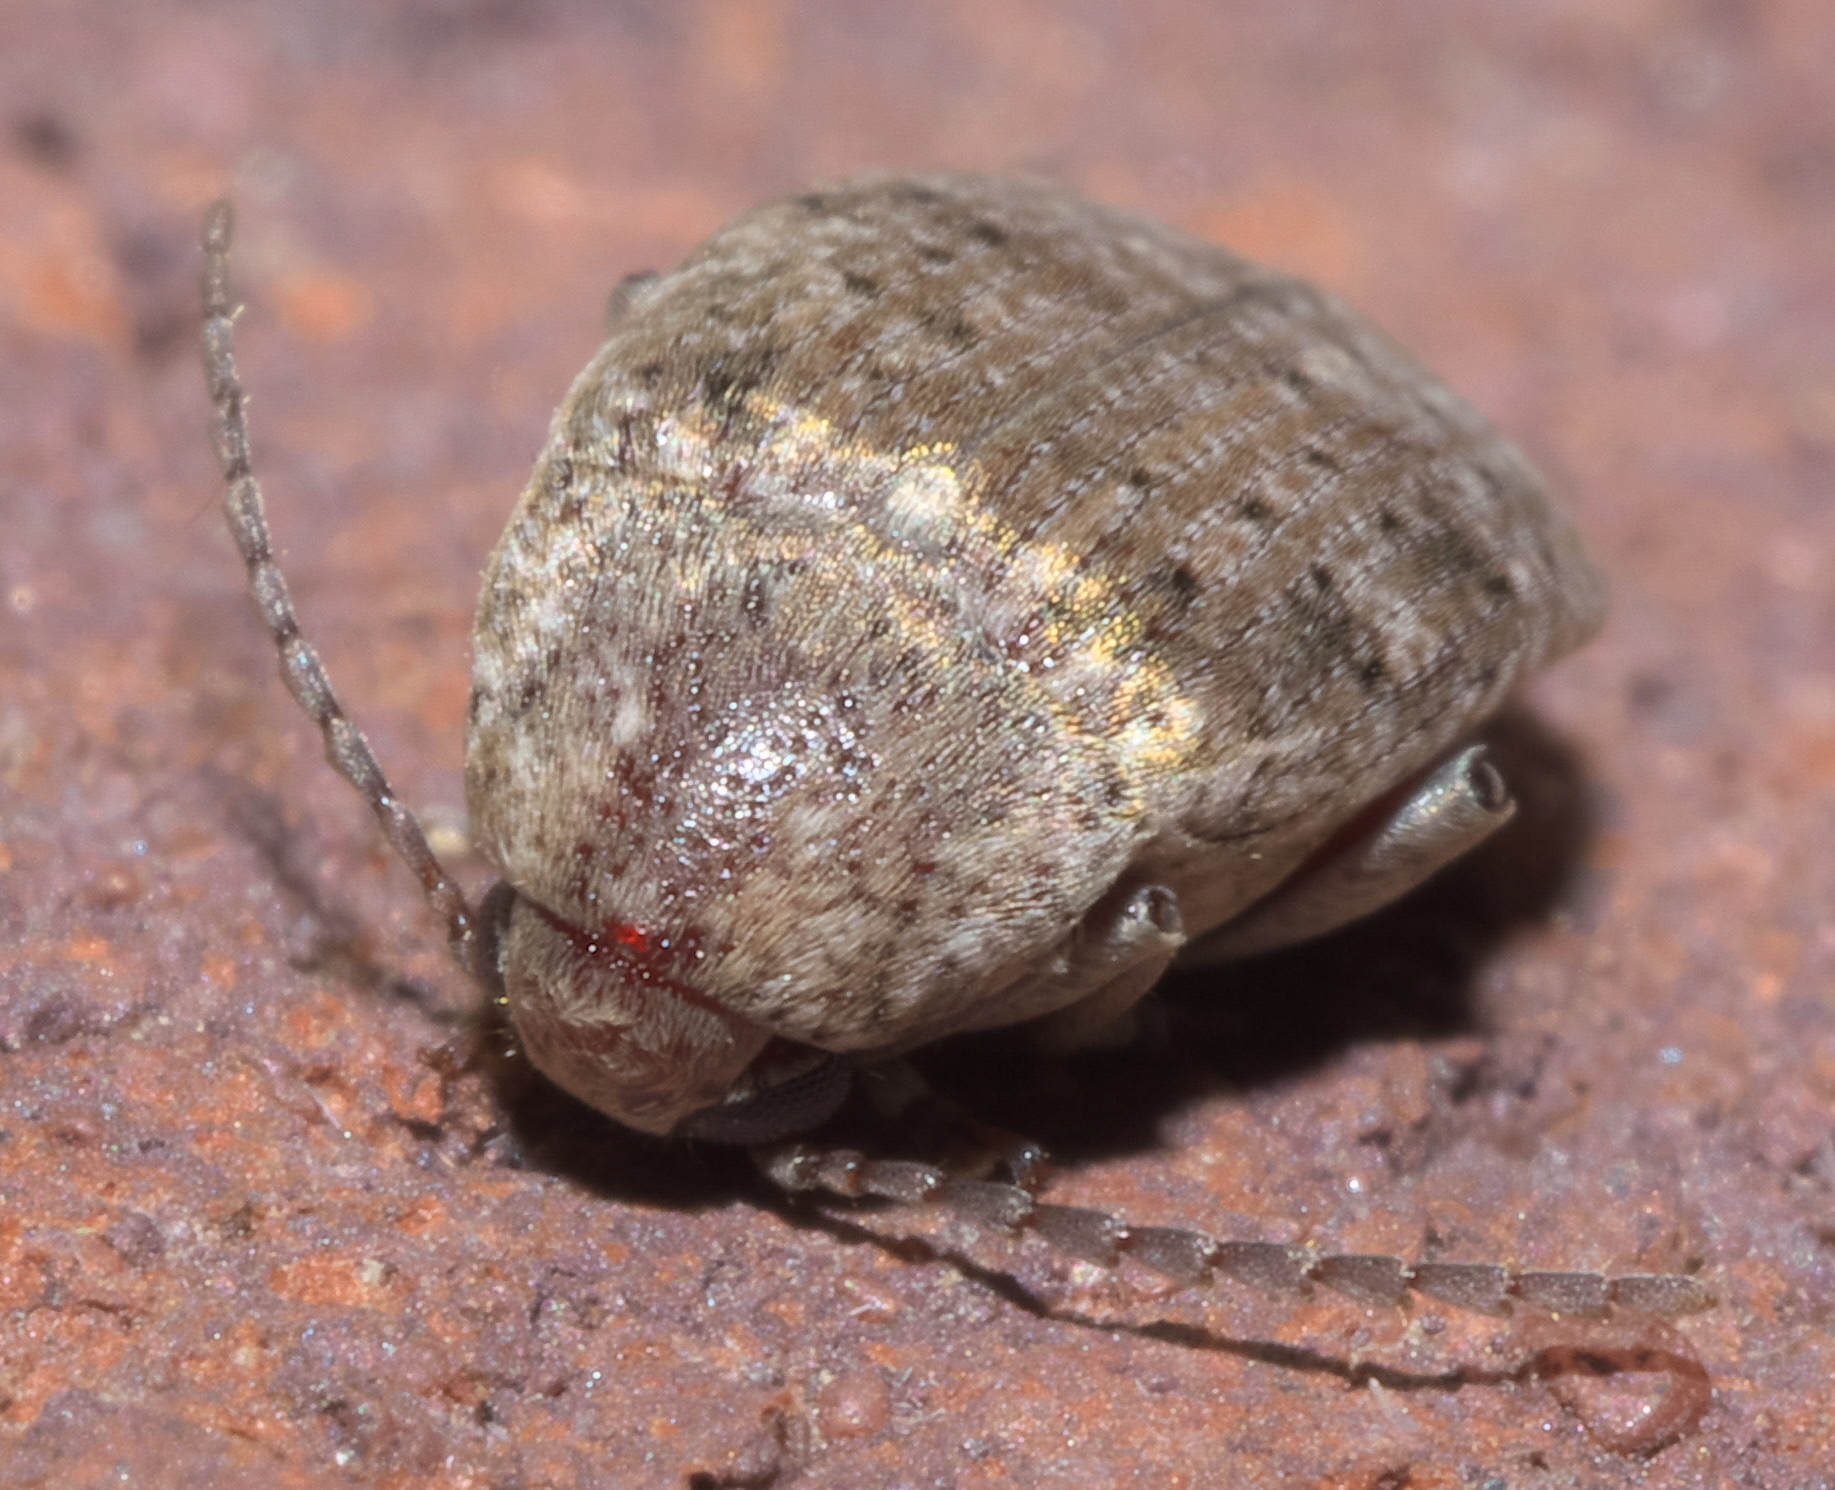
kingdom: Animalia
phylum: Arthropoda
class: Insecta
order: Coleoptera
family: Chrysomelidae
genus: Amblycerus
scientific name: Amblycerus robiniae
